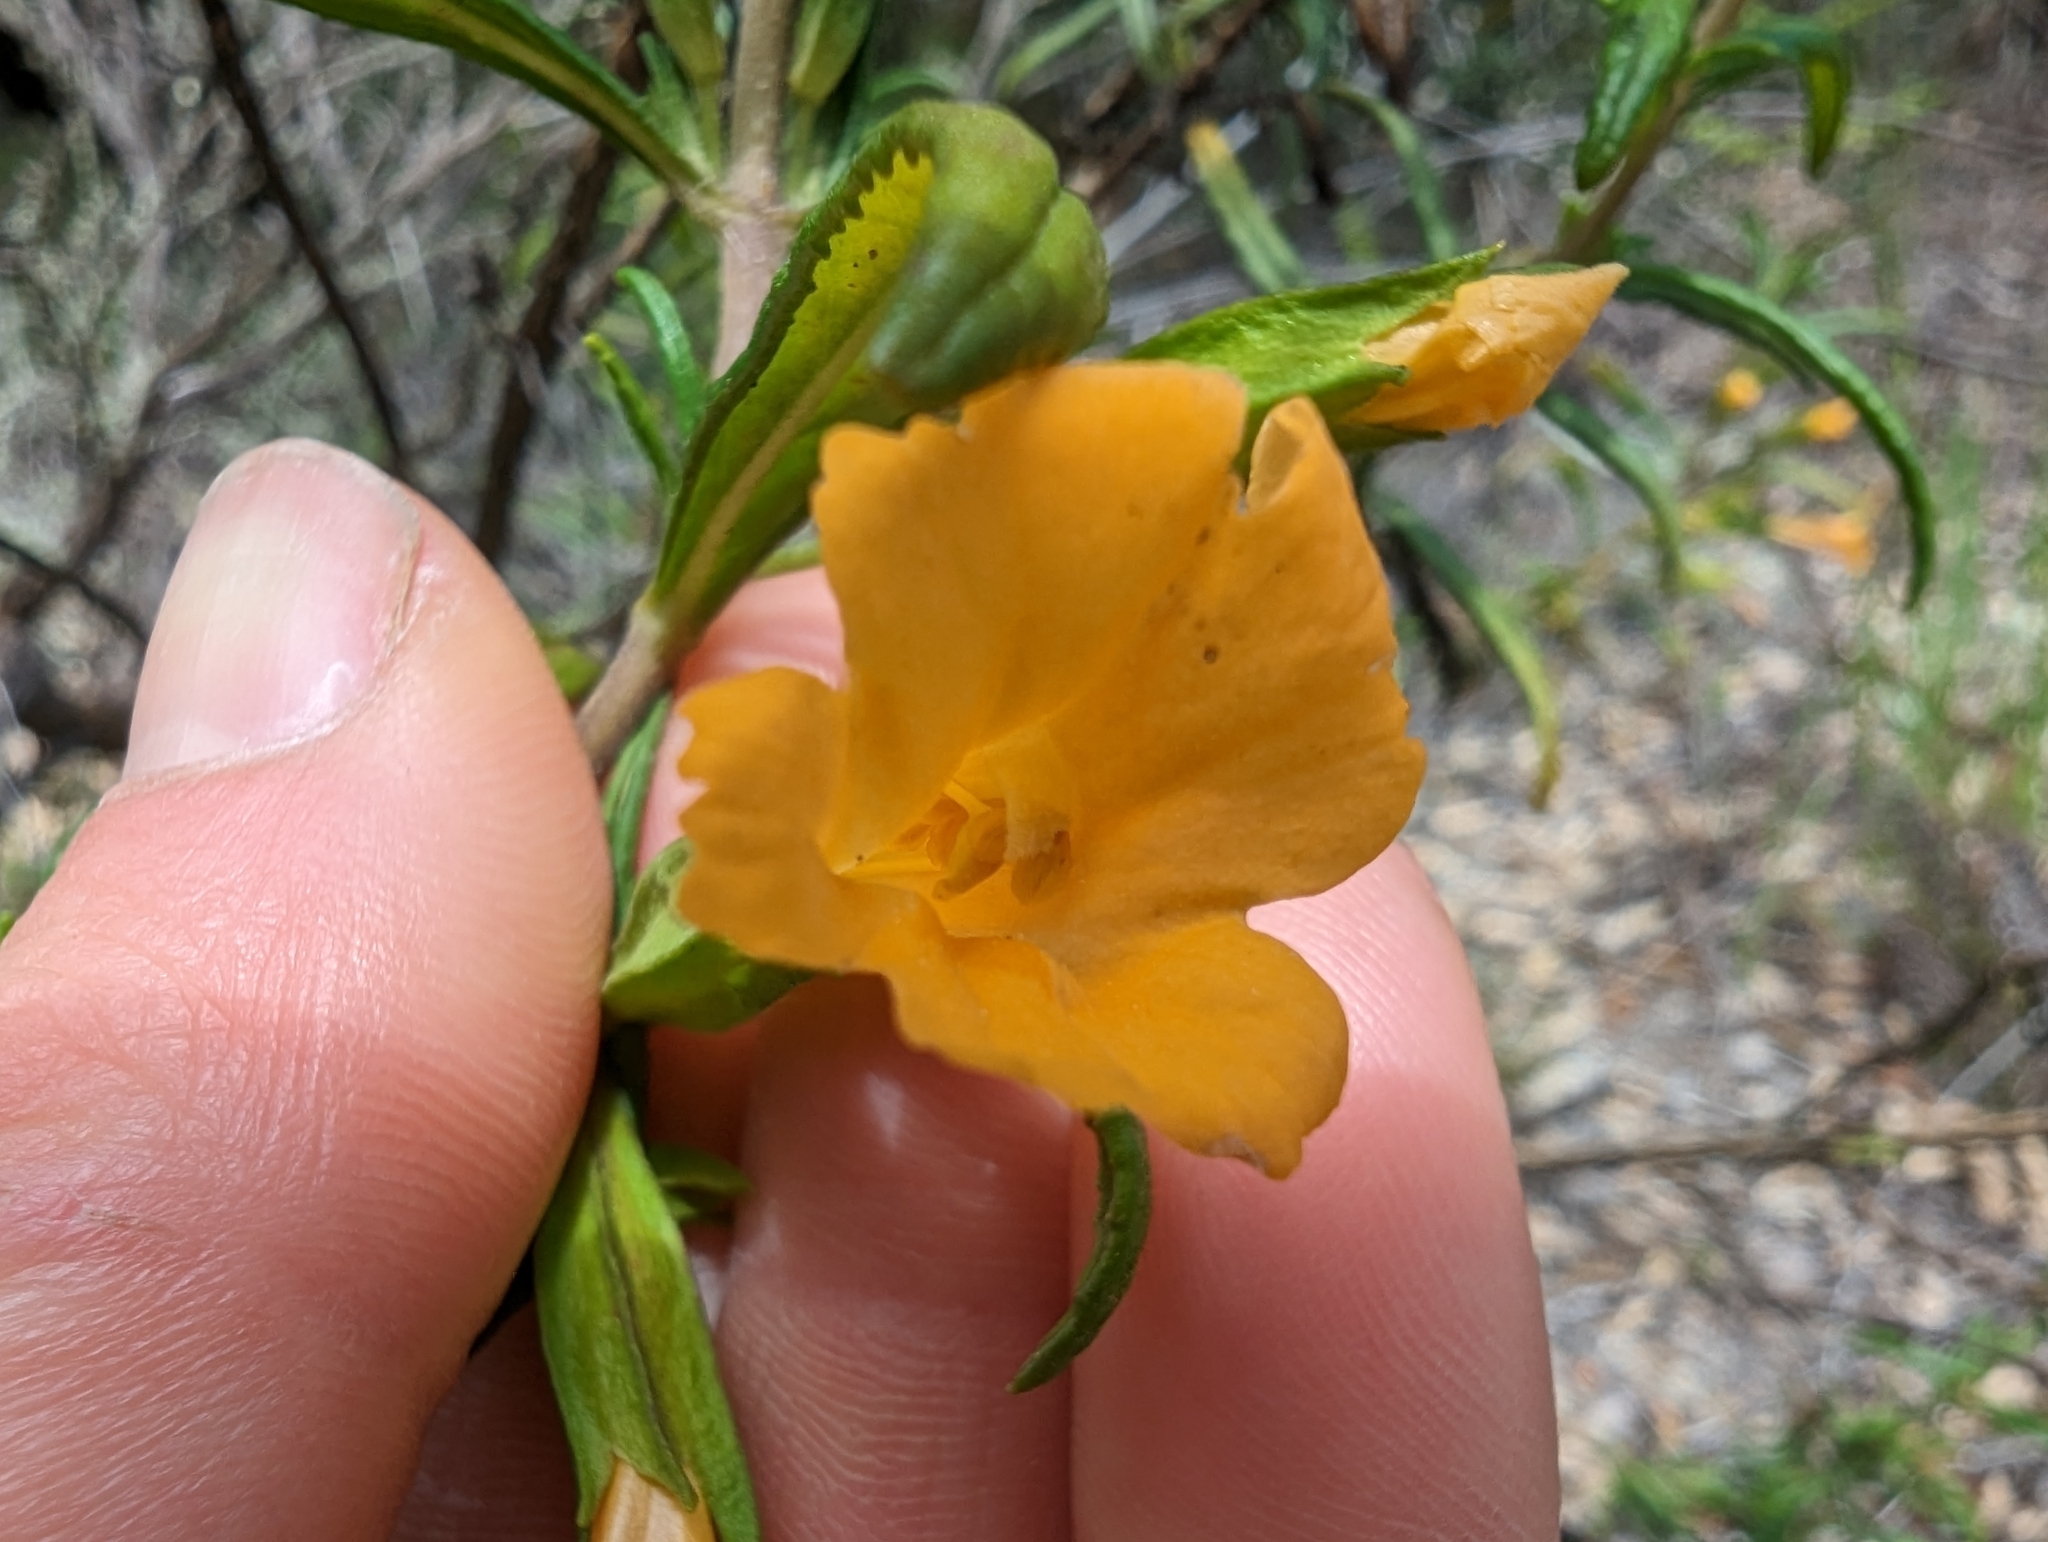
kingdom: Plantae
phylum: Tracheophyta
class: Magnoliopsida
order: Lamiales
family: Phrymaceae
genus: Diplacus
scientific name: Diplacus aurantiacus
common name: Bush monkey-flower
